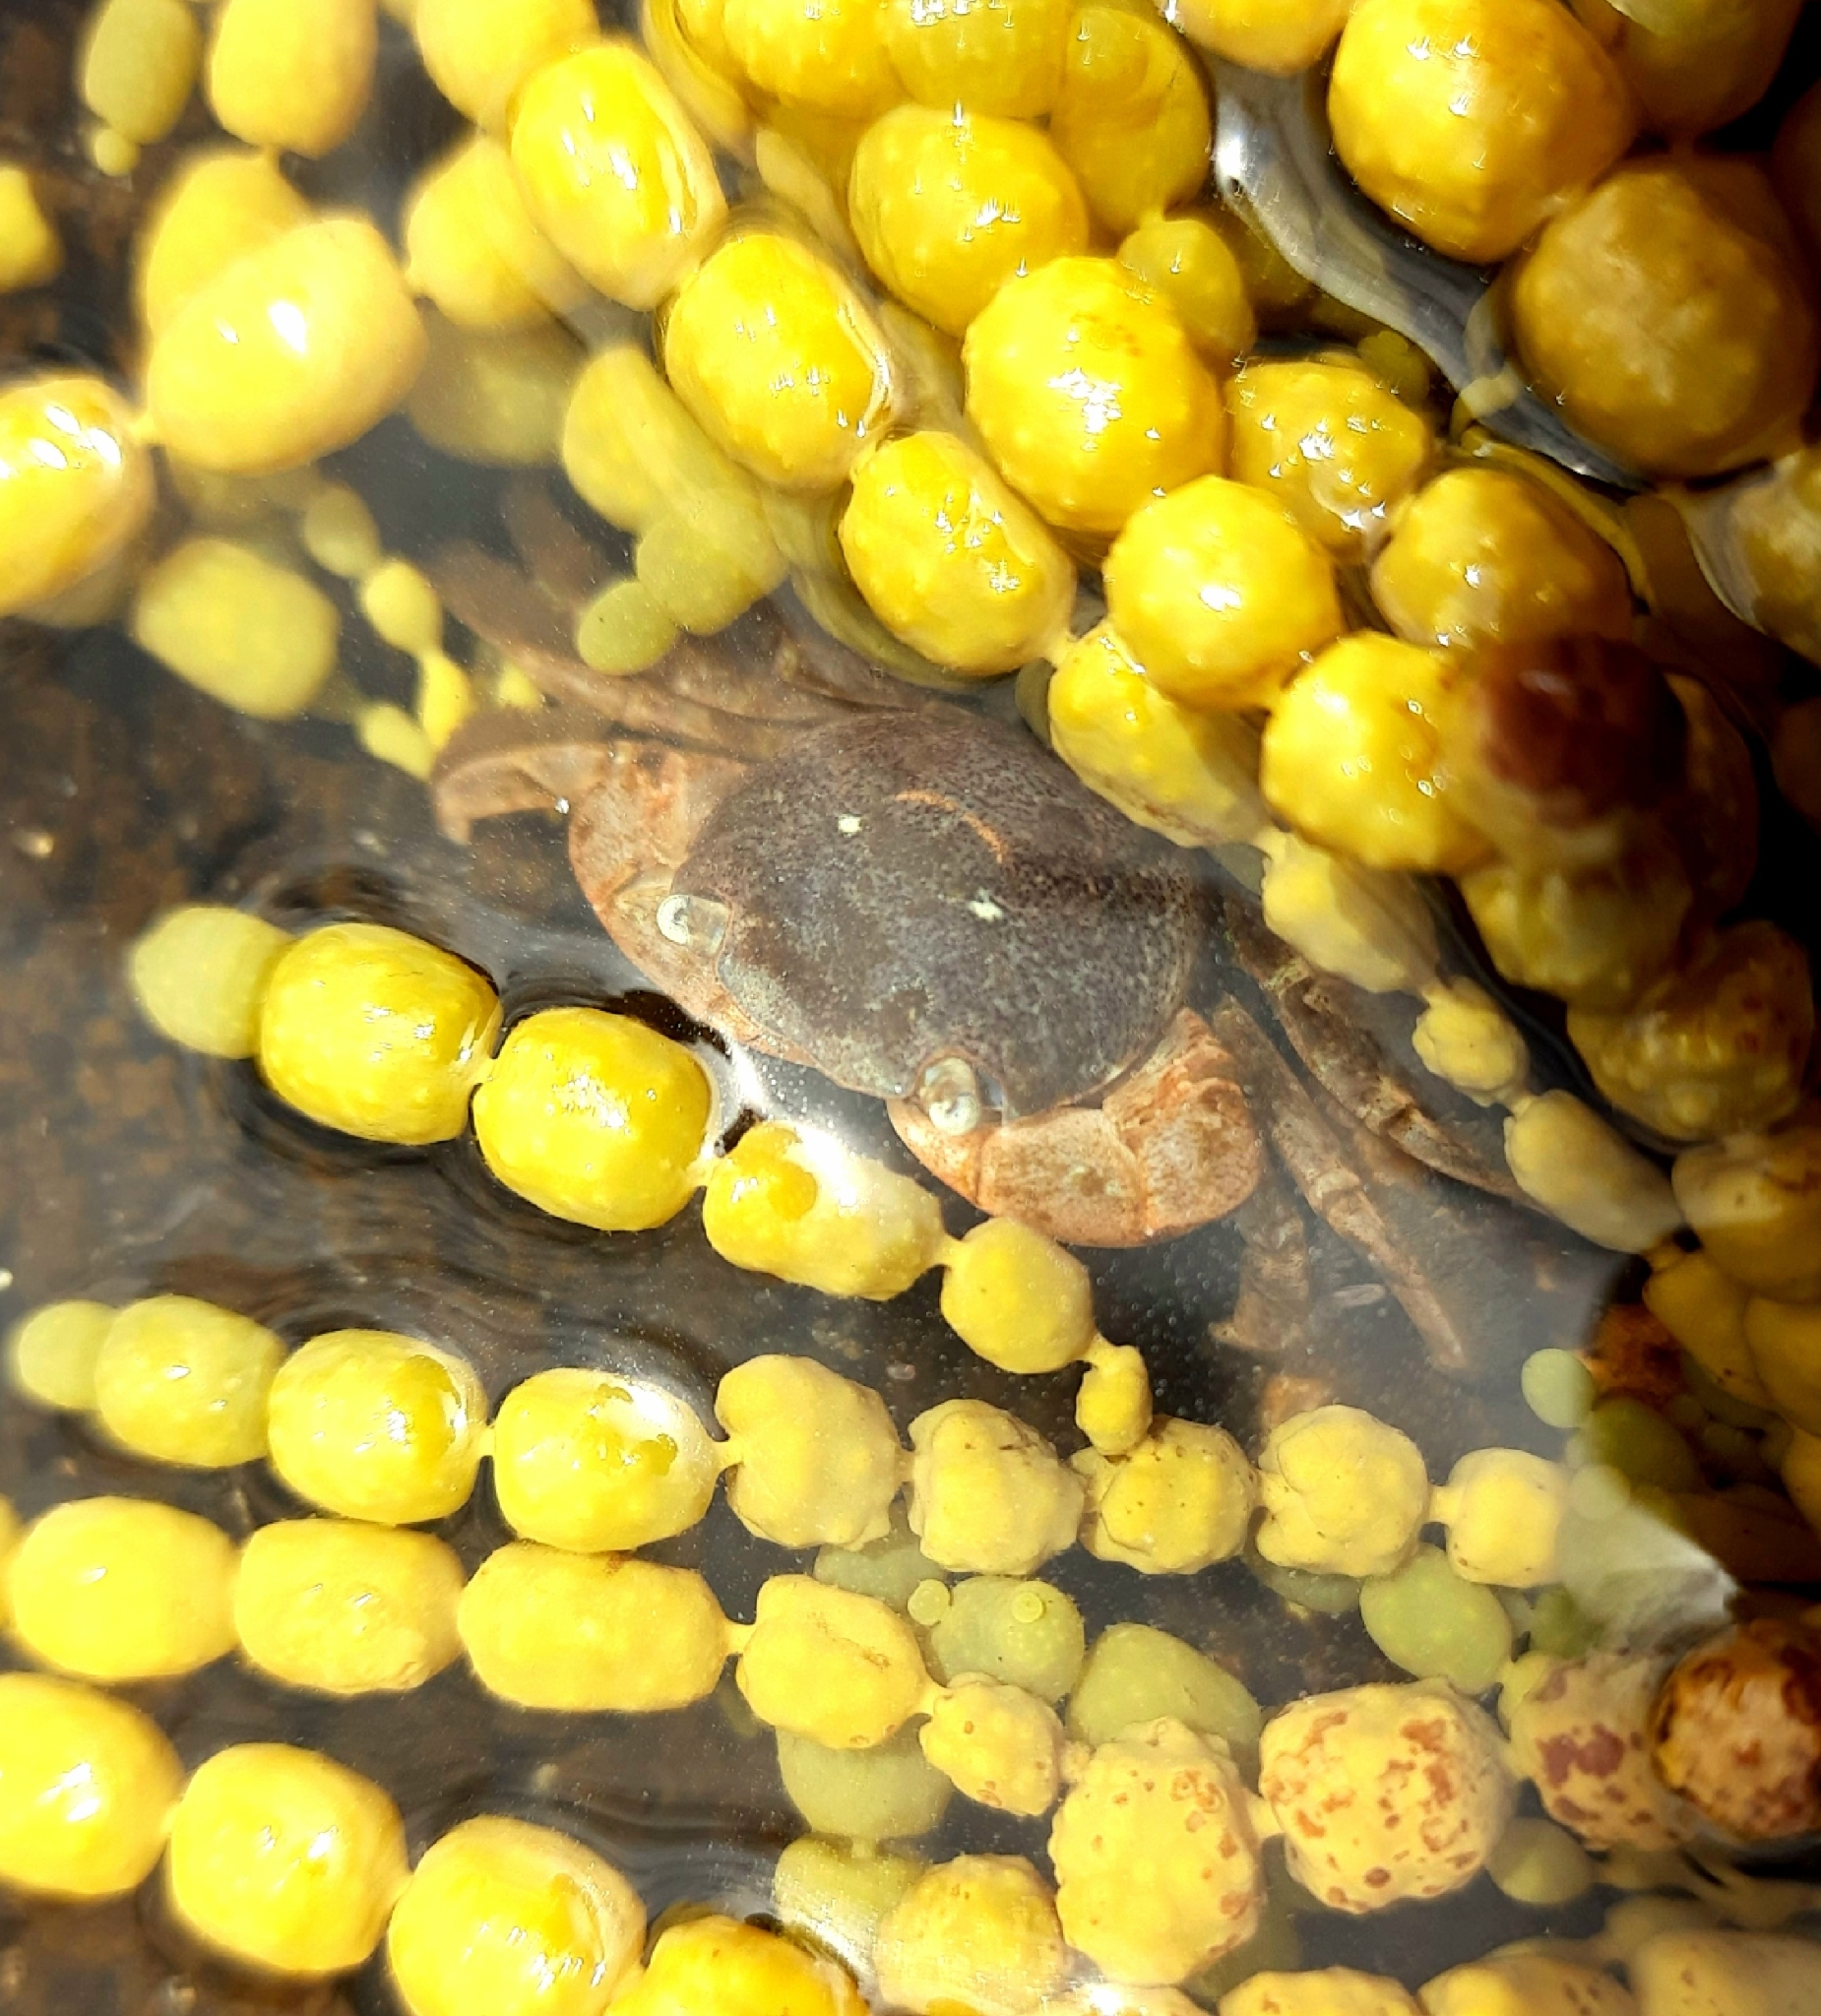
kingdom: Animalia
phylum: Arthropoda
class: Malacostraca
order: Decapoda
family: Grapsidae
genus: Planes
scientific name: Planes minutus
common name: Gulf weed crab
